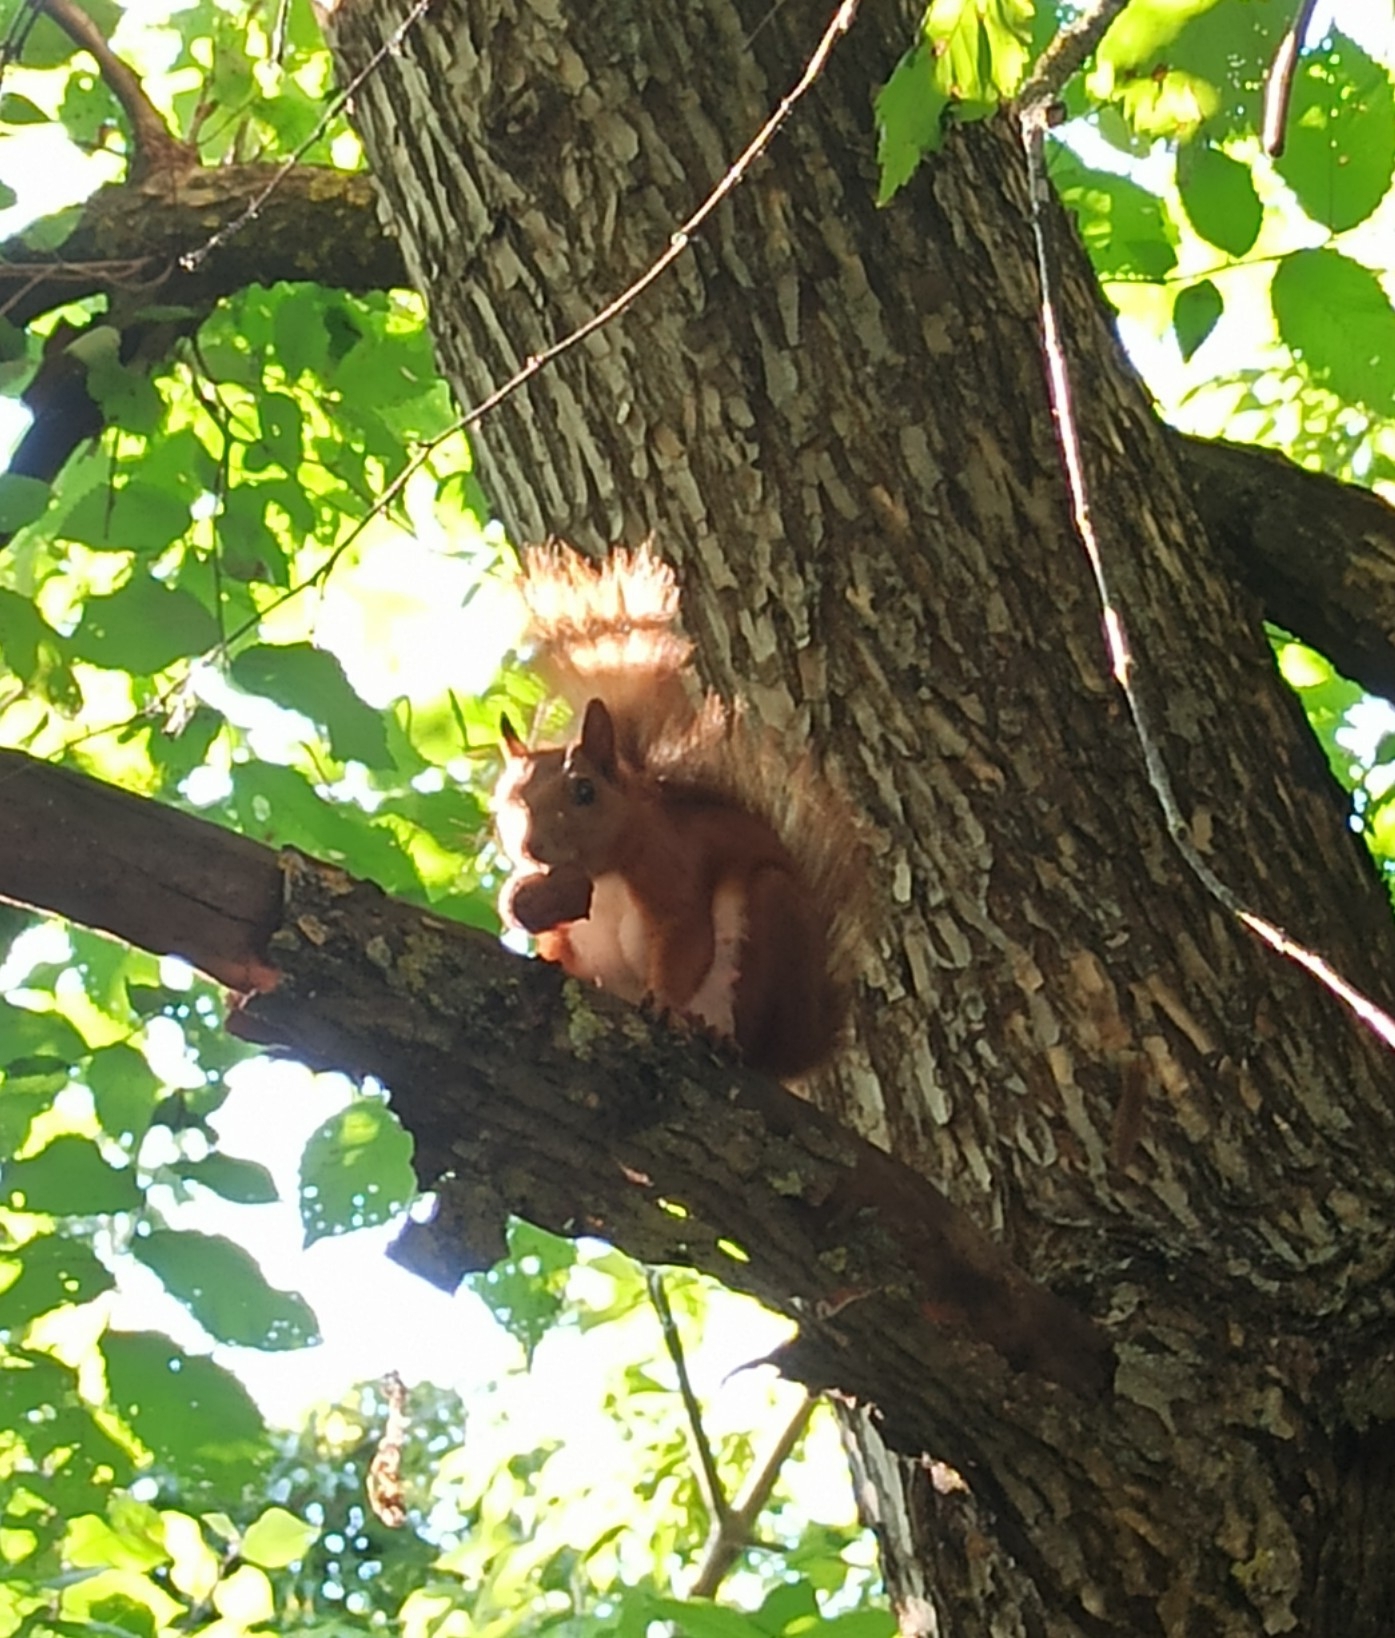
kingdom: Animalia
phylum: Chordata
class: Mammalia
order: Rodentia
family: Sciuridae
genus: Sciurus
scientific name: Sciurus vulgaris
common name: Eurasian red squirrel
